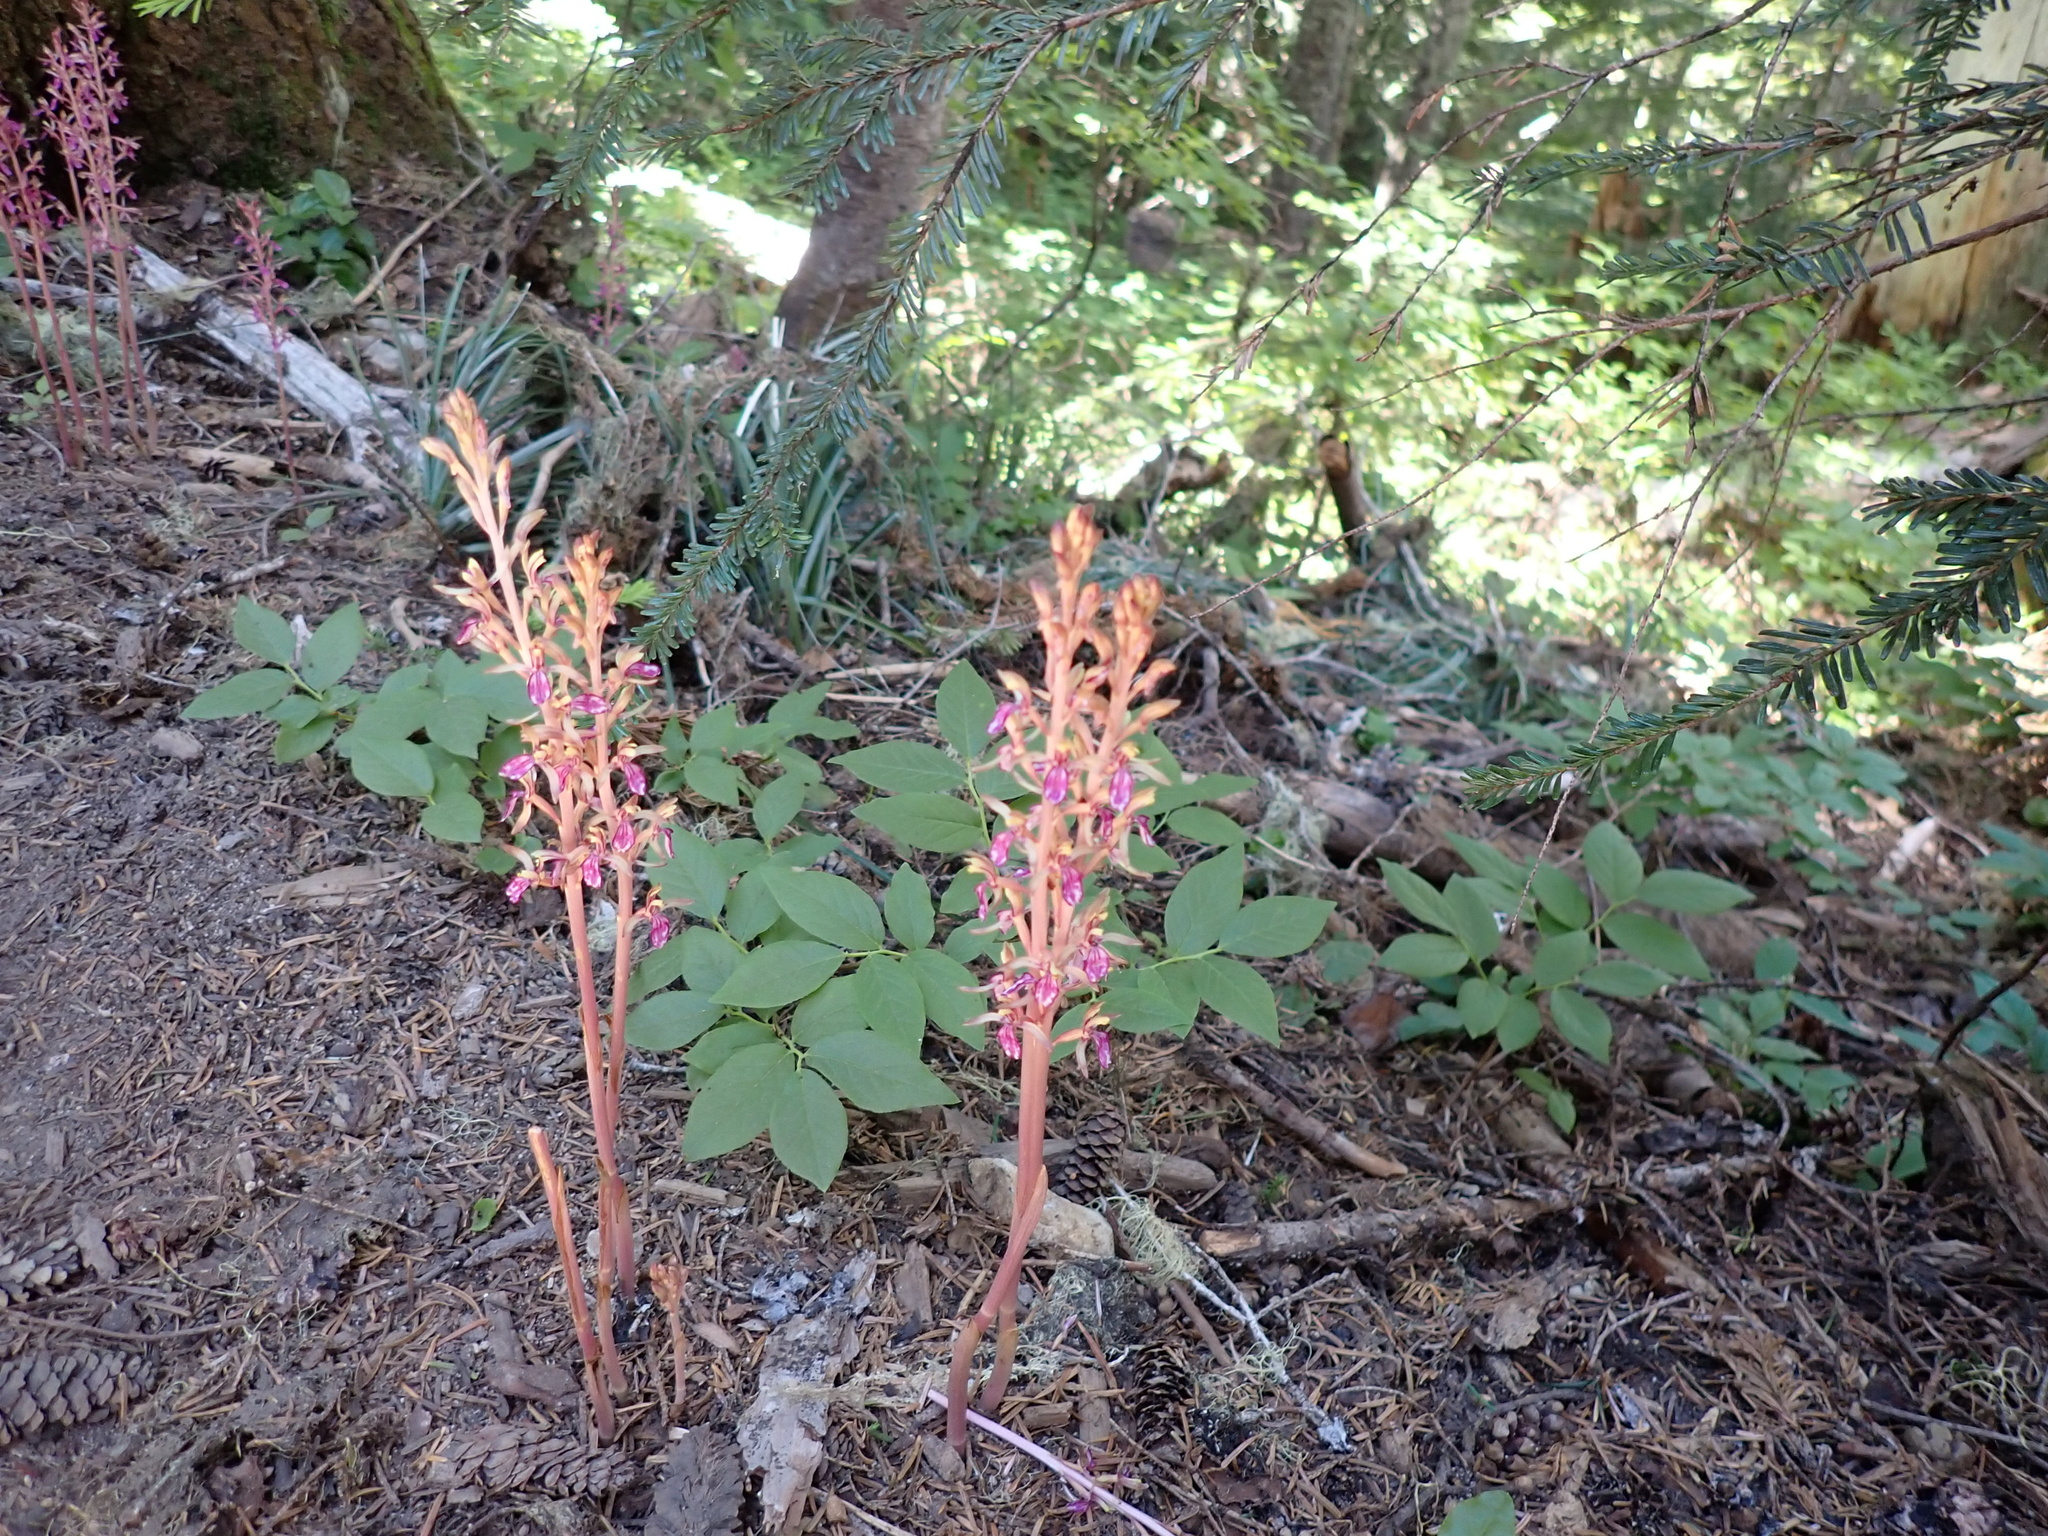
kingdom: Plantae
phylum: Tracheophyta
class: Liliopsida
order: Asparagales
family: Orchidaceae
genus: Corallorhiza
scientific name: Corallorhiza mertensiana
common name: Pacific coralroot
